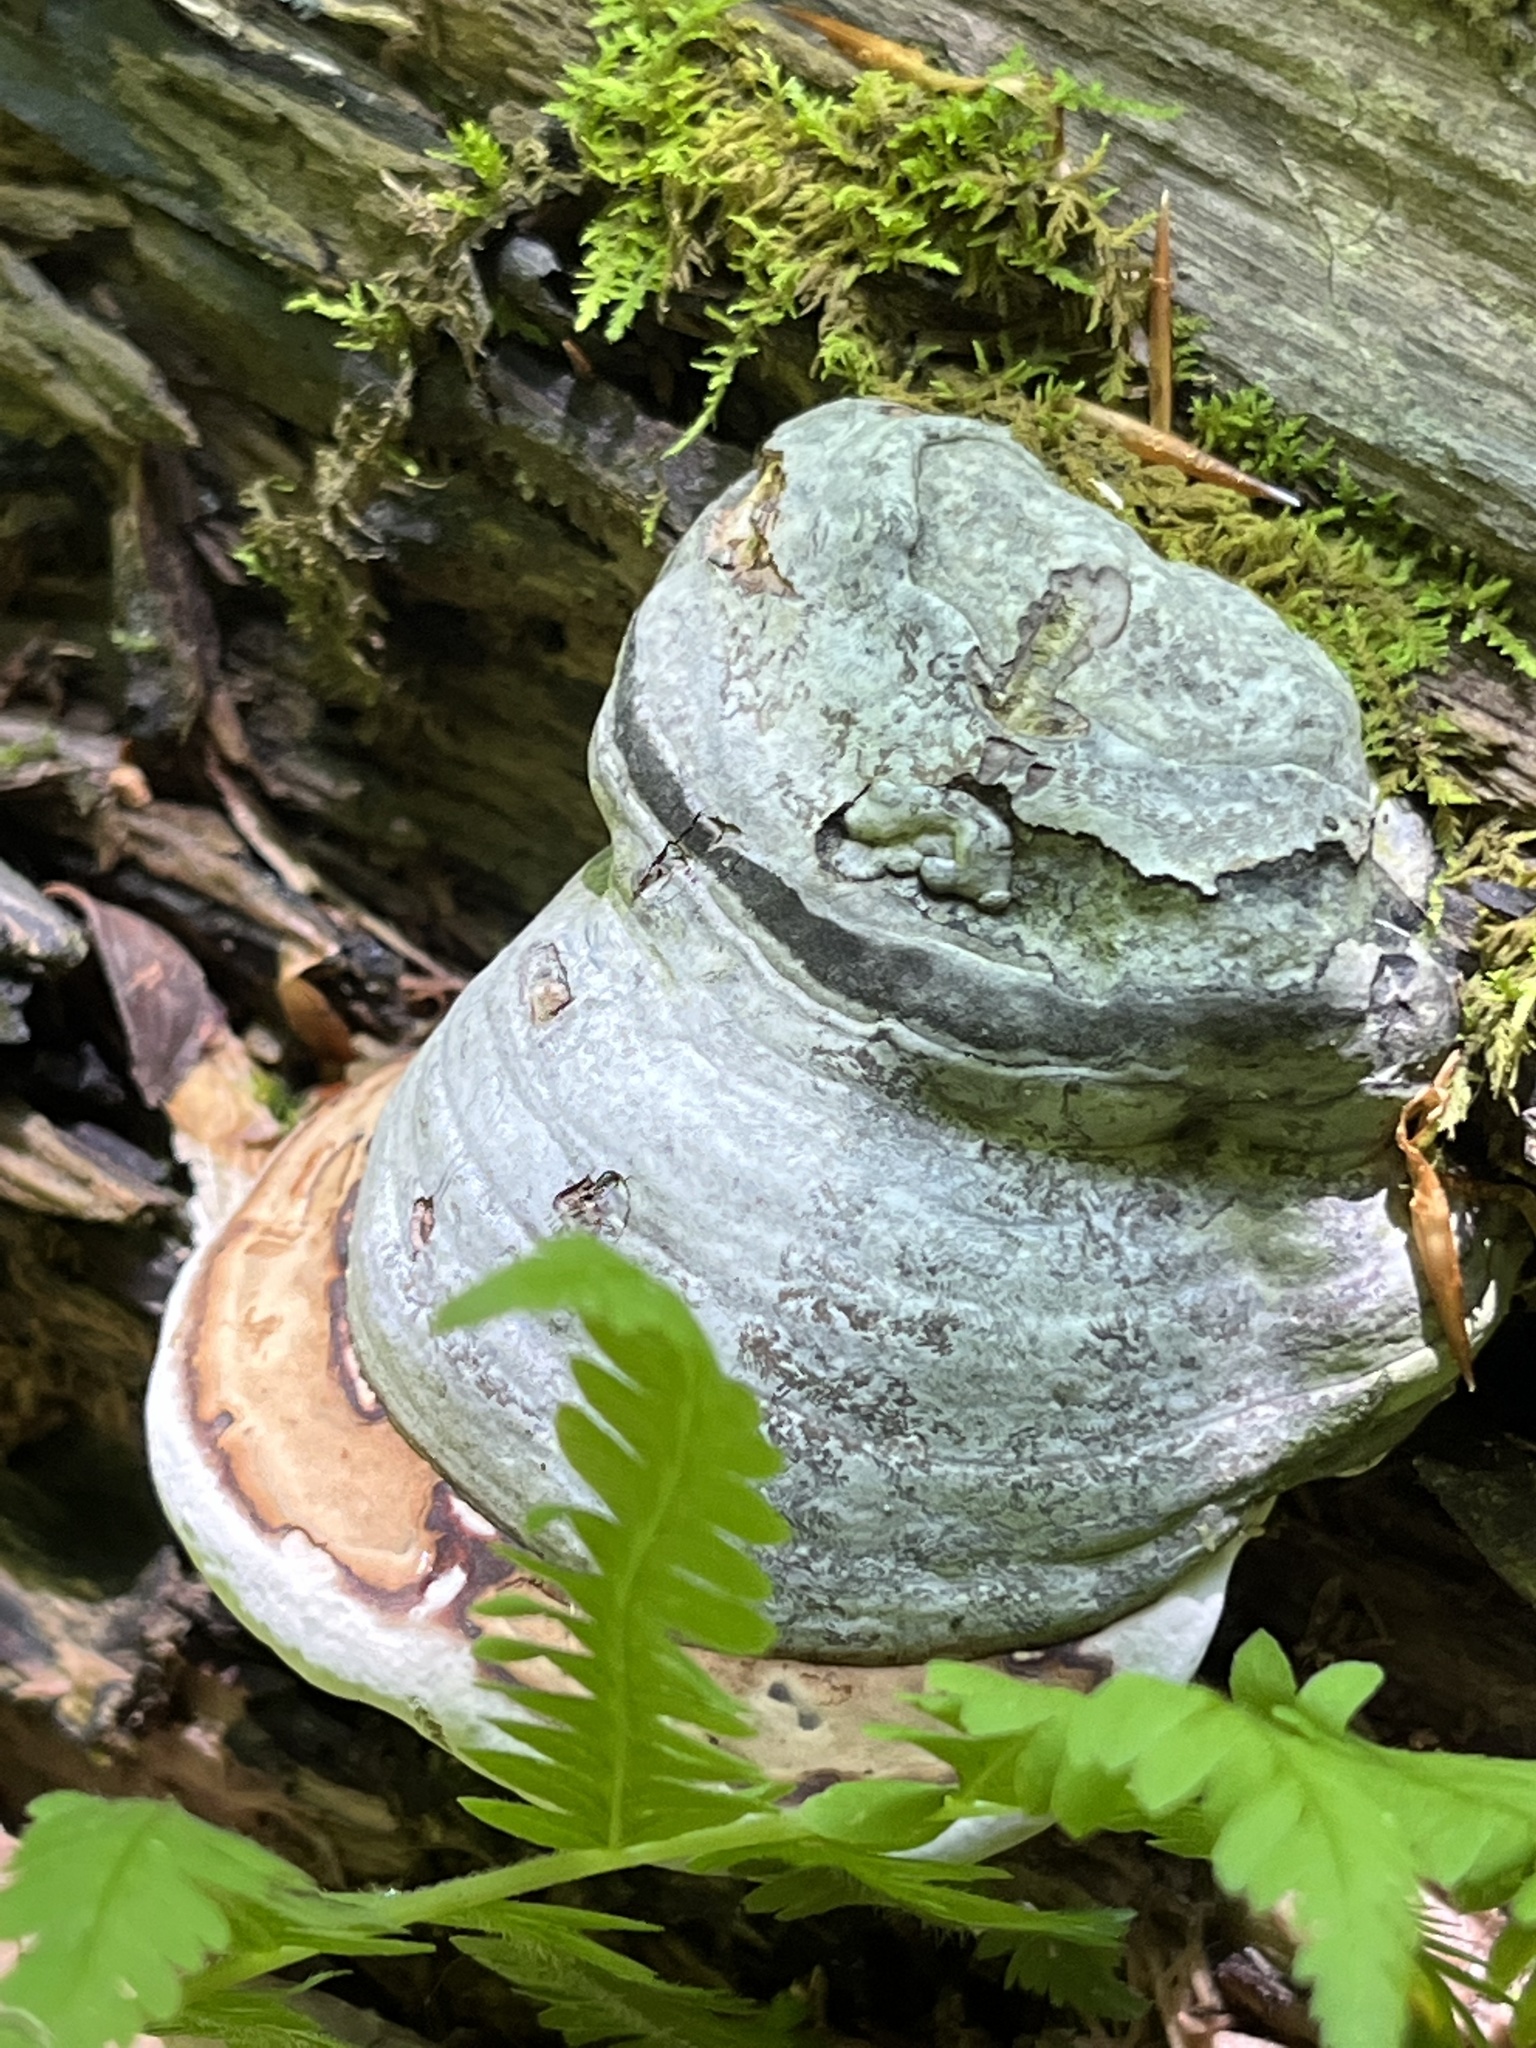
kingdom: Fungi
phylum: Basidiomycota
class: Agaricomycetes
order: Polyporales
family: Polyporaceae
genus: Fomes
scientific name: Fomes fomentarius
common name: Hoof fungus
